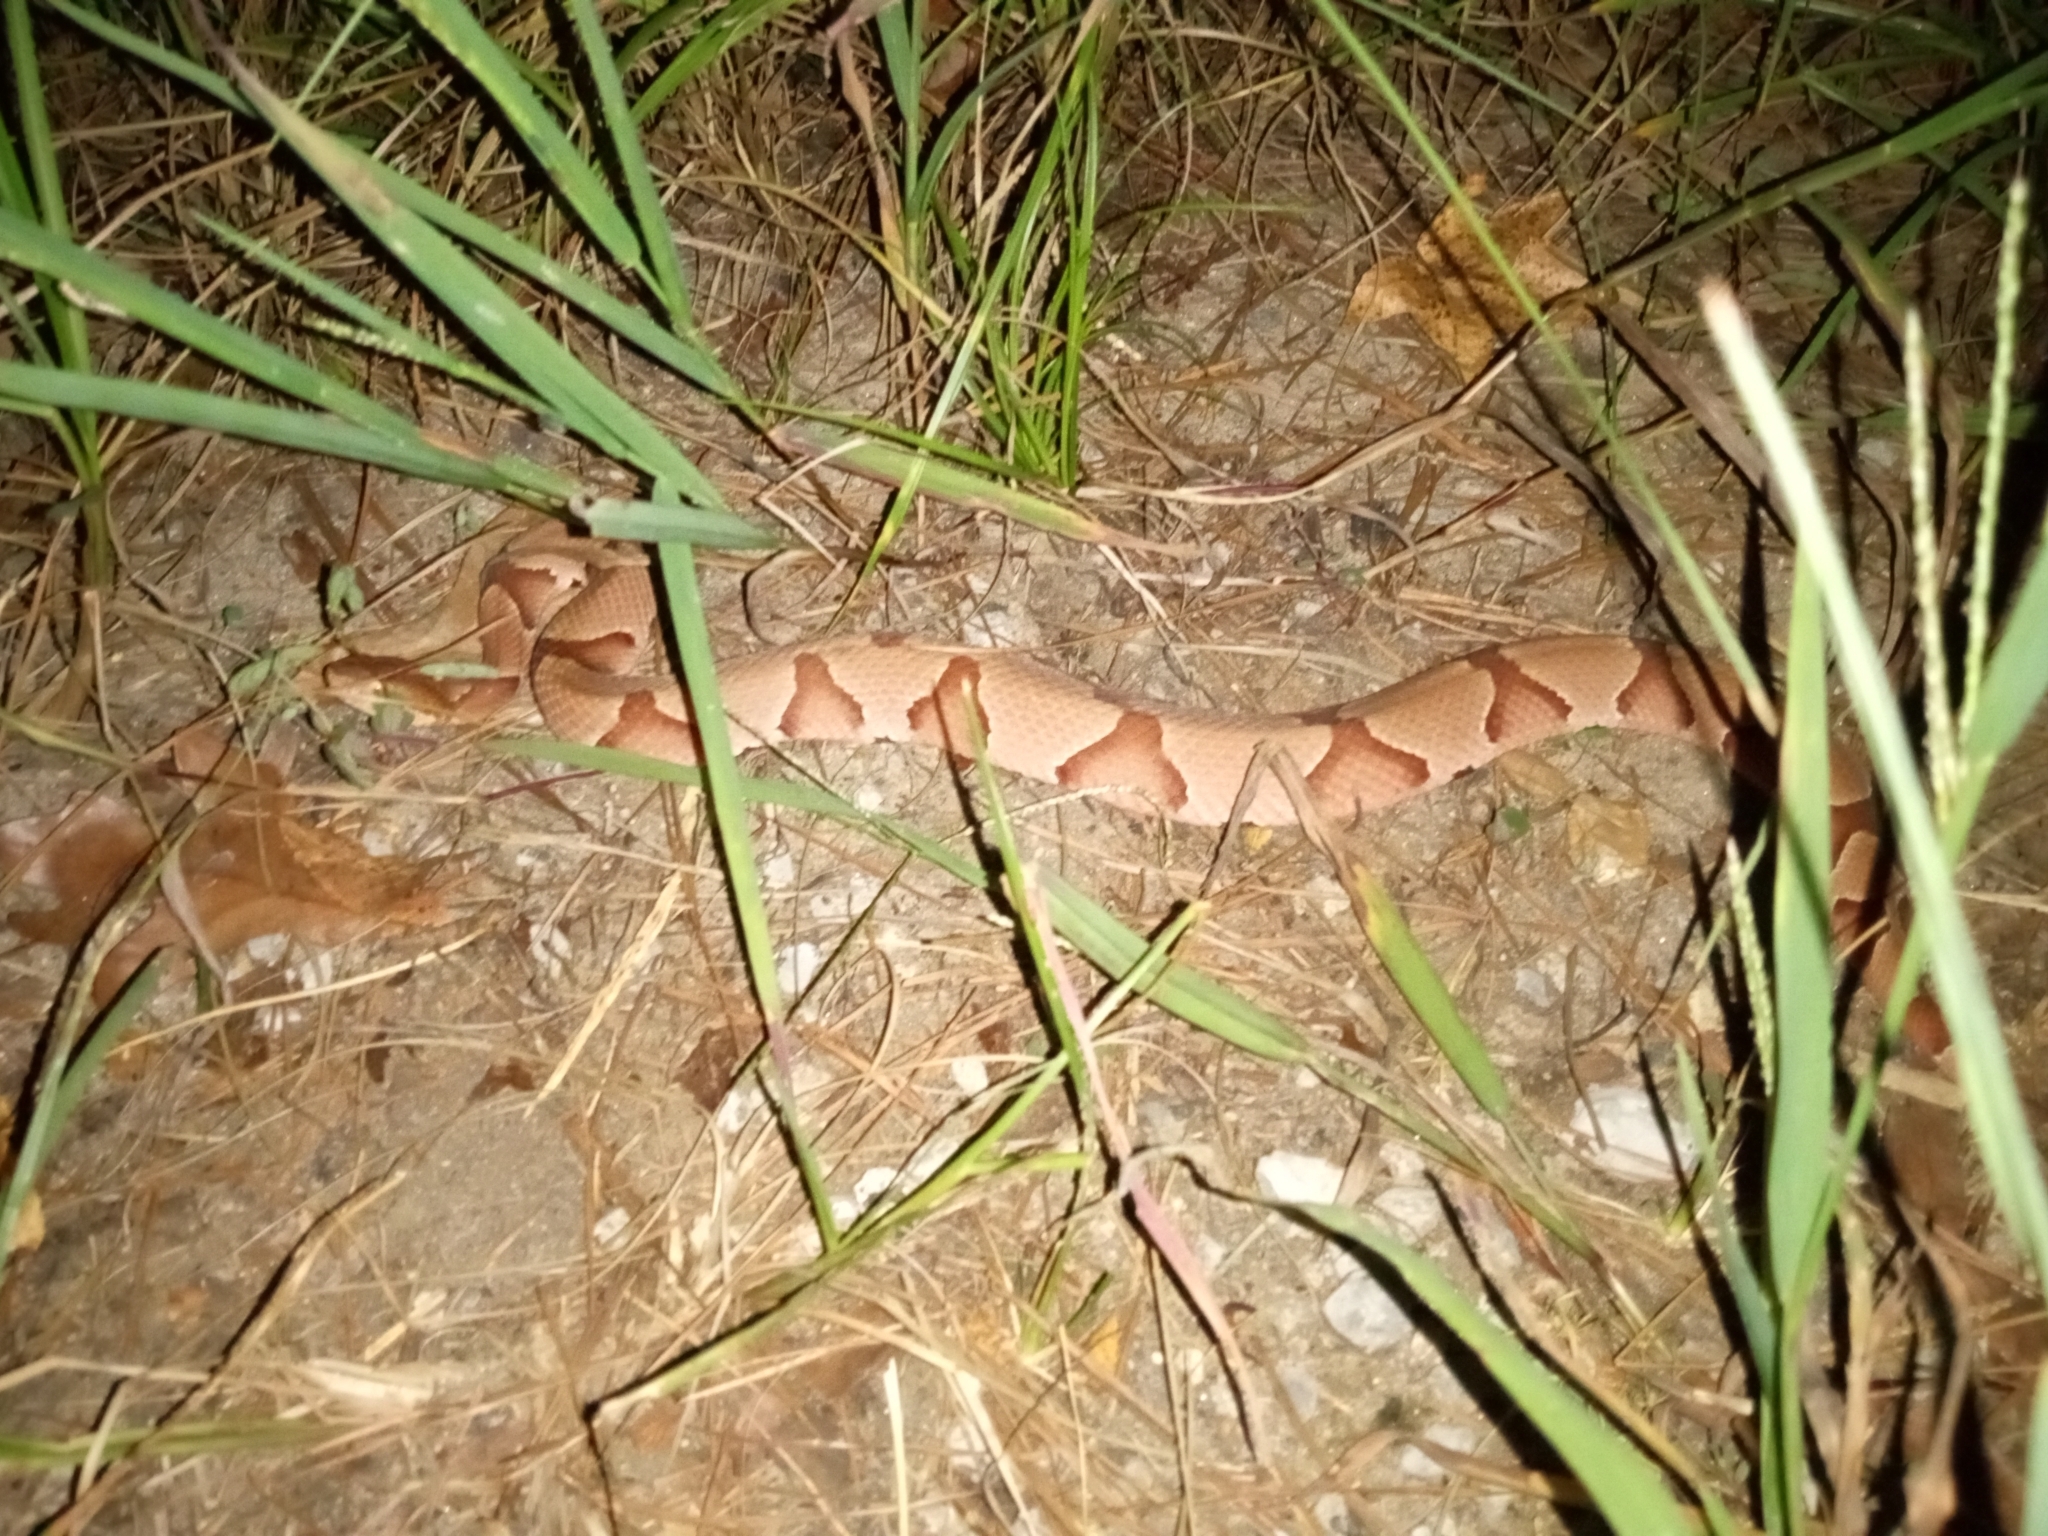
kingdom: Animalia
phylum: Chordata
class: Squamata
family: Viperidae
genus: Agkistrodon
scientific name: Agkistrodon contortrix
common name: Northern copperhead
